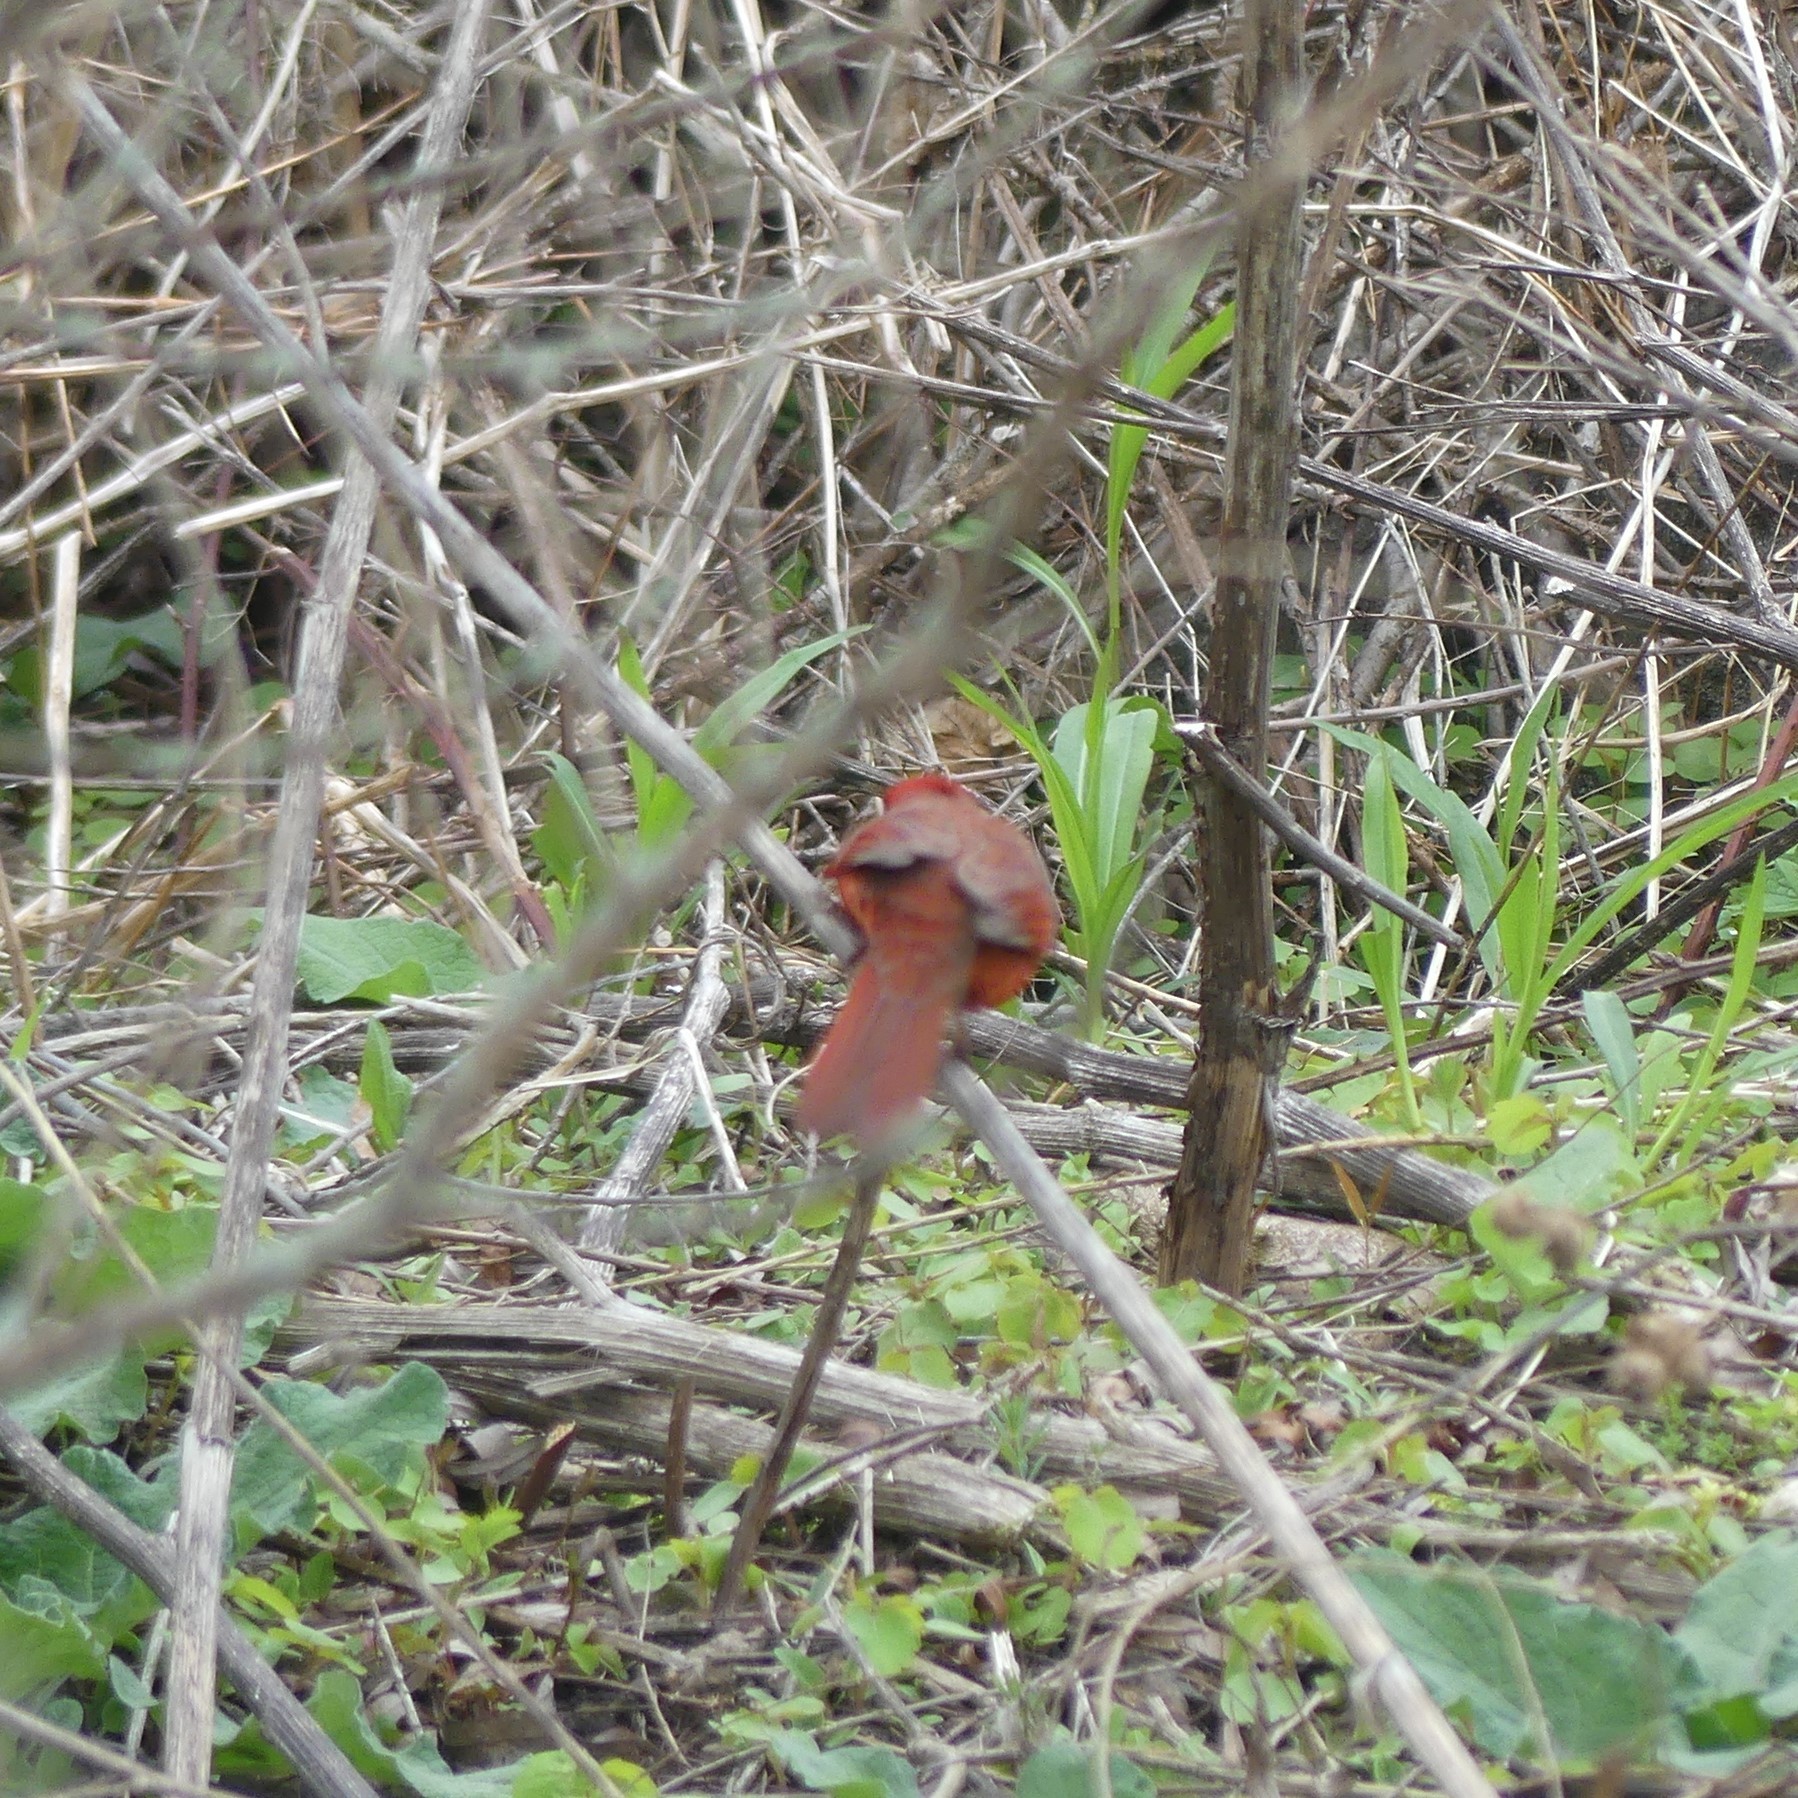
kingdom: Animalia
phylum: Chordata
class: Aves
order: Passeriformes
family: Cardinalidae
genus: Cardinalis
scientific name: Cardinalis cardinalis
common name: Northern cardinal
